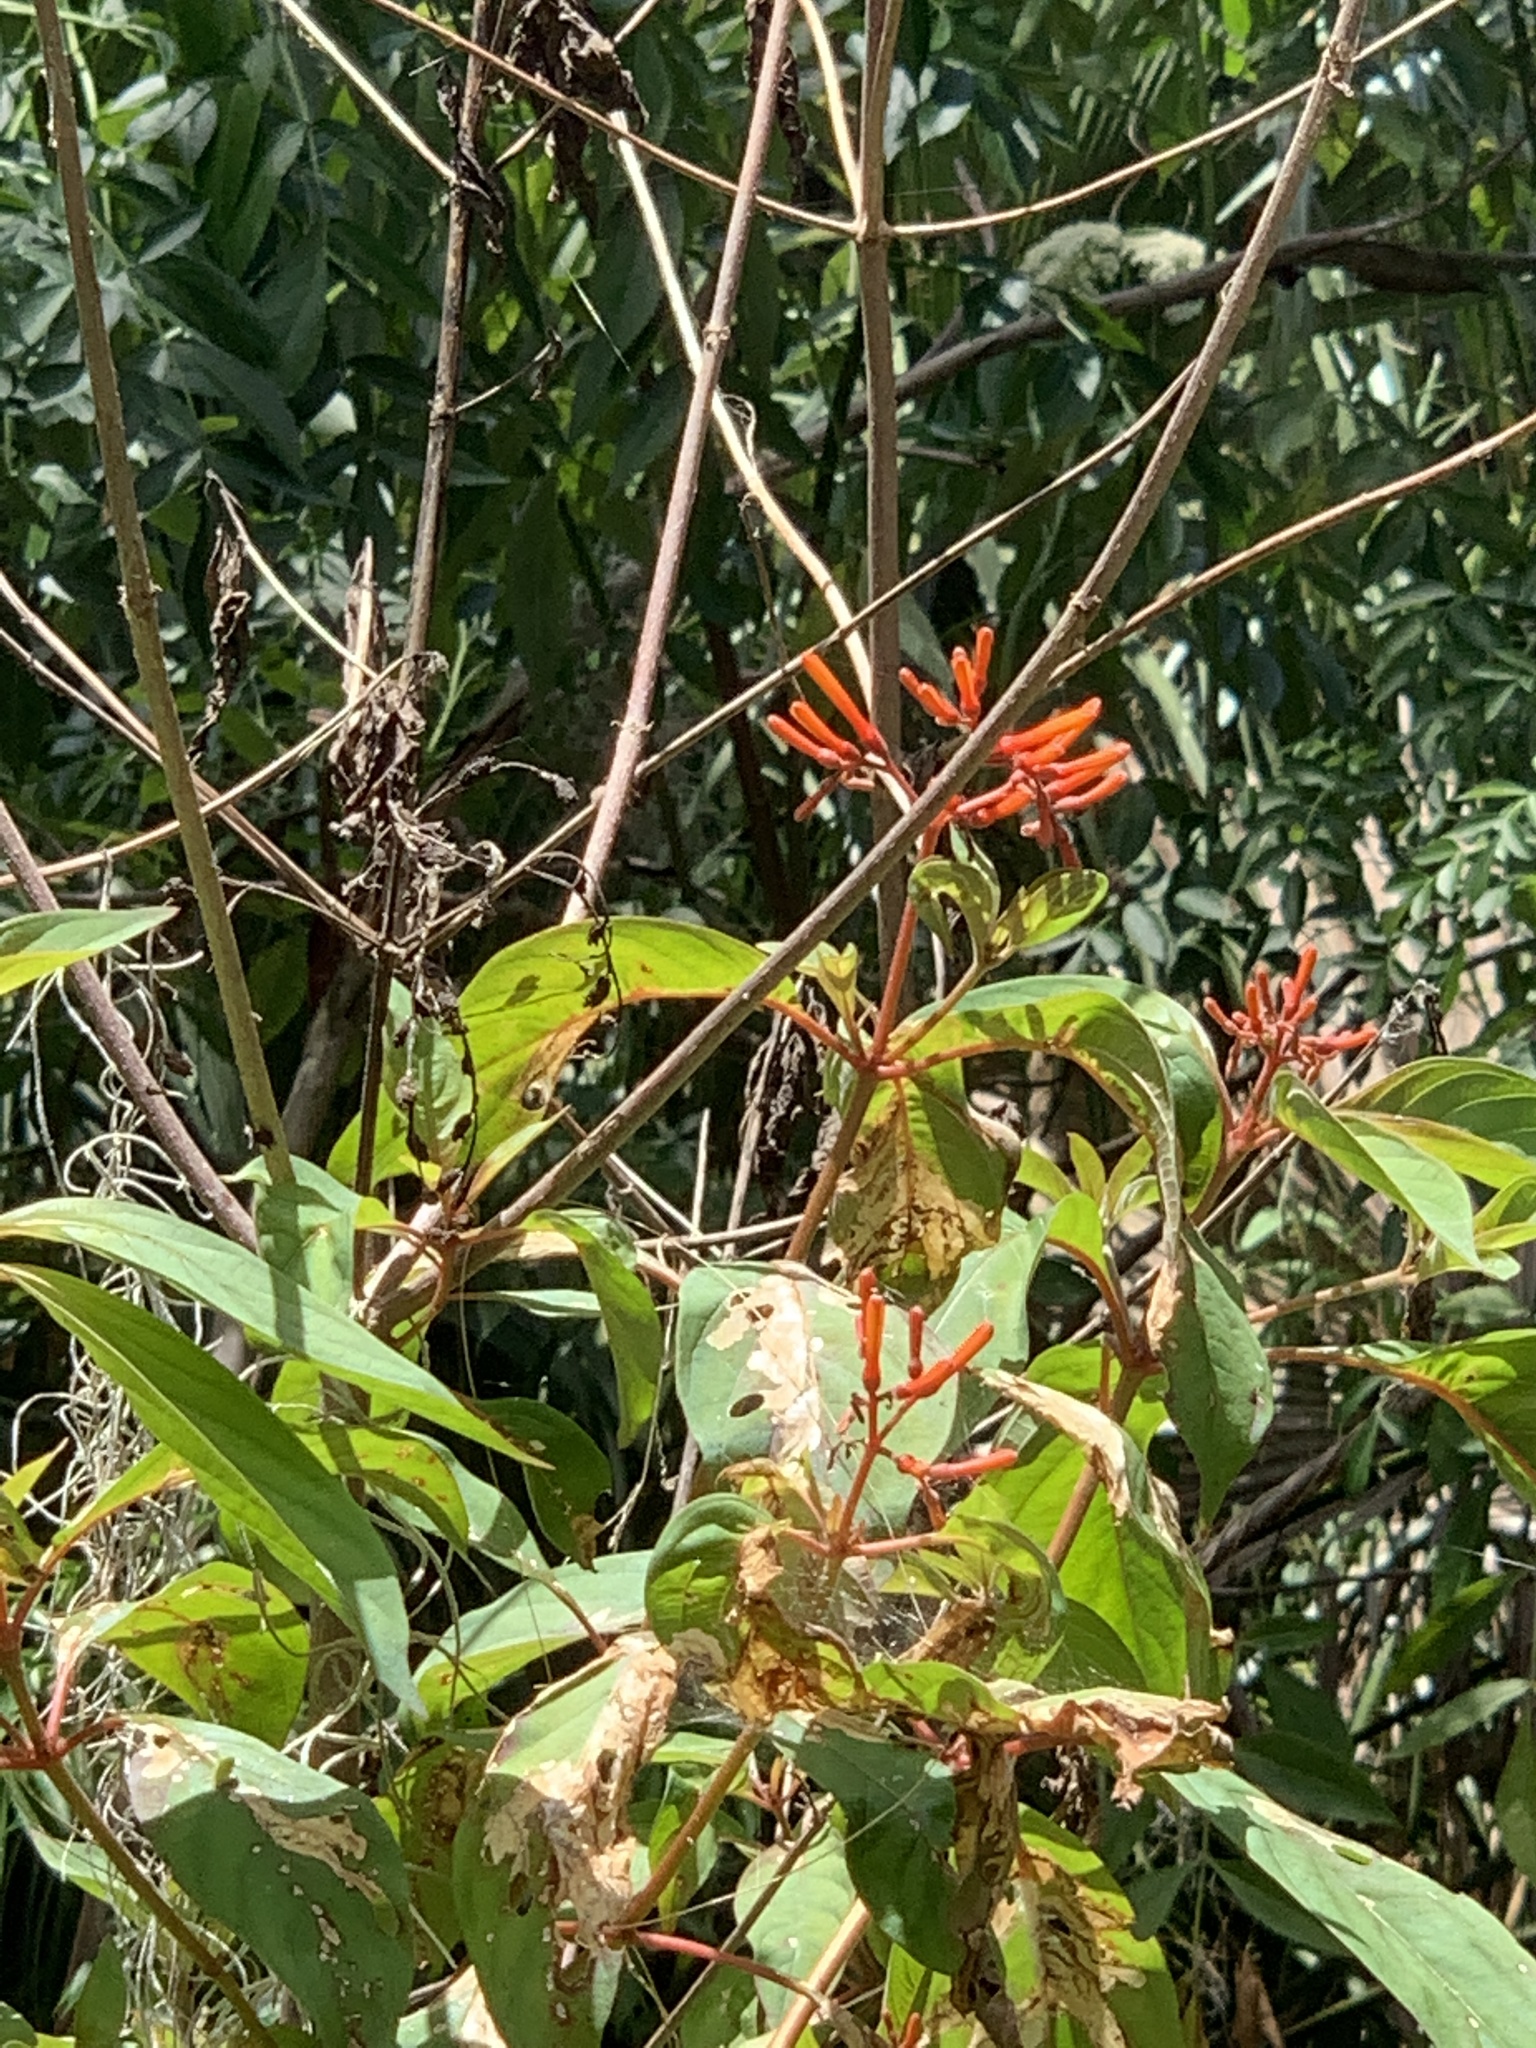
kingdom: Plantae
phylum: Tracheophyta
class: Magnoliopsida
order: Gentianales
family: Rubiaceae
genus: Hamelia
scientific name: Hamelia patens
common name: Redhead
